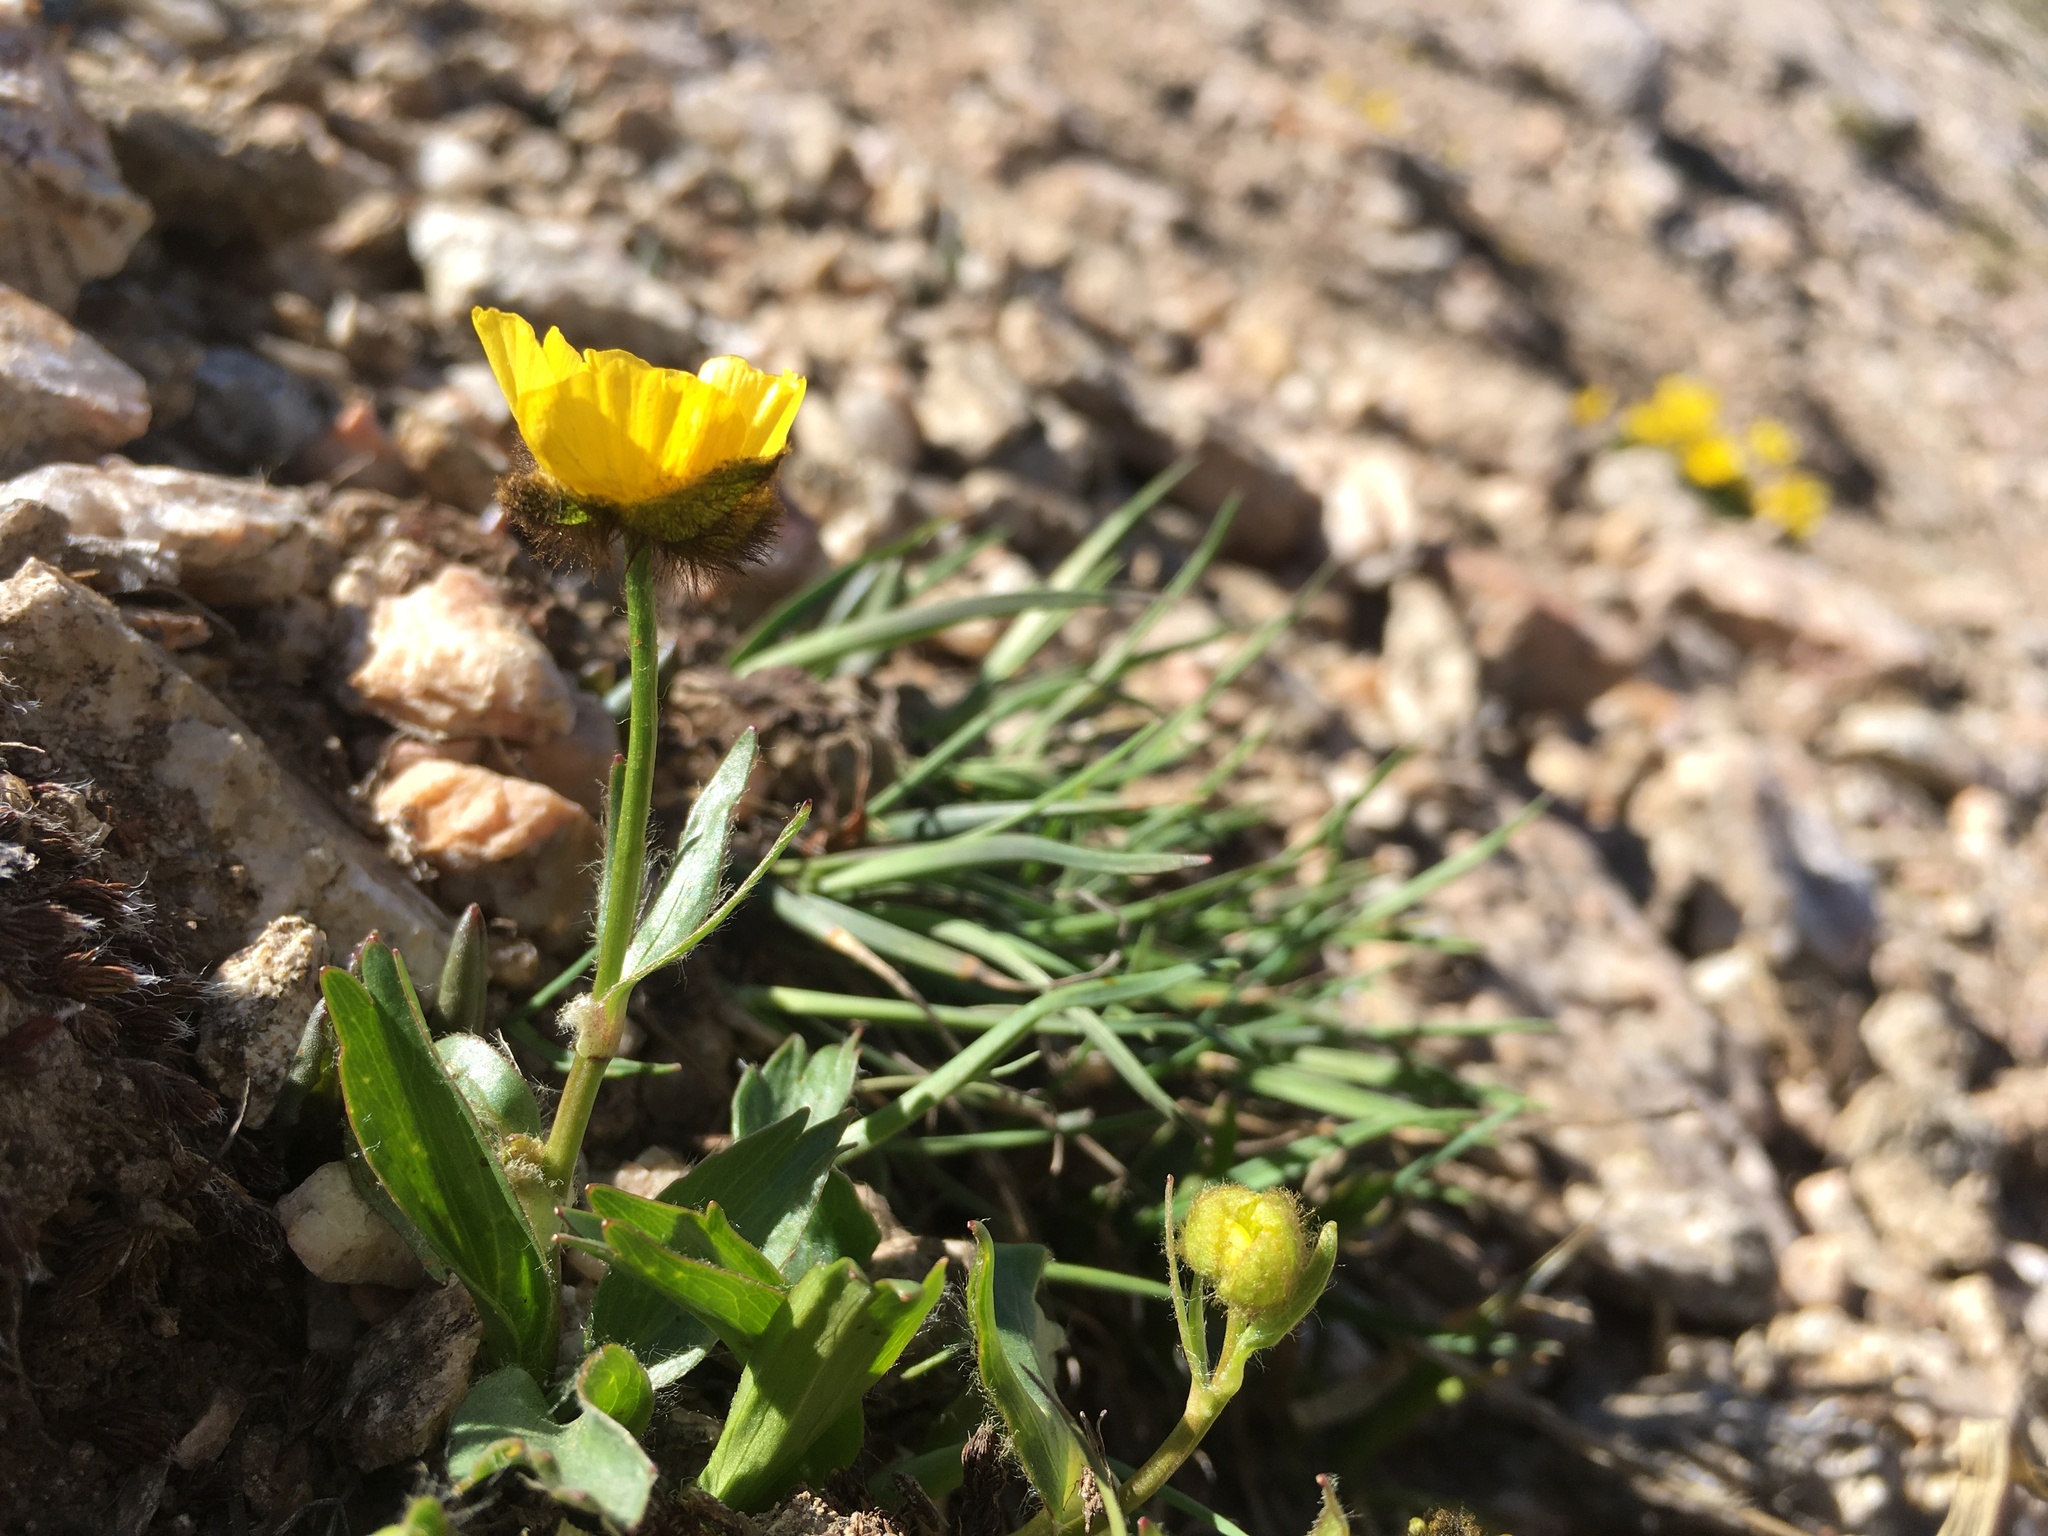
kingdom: Plantae
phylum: Tracheophyta
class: Magnoliopsida
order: Ranunculales
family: Ranunculaceae
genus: Ranunculus
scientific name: Ranunculus macauleyi
